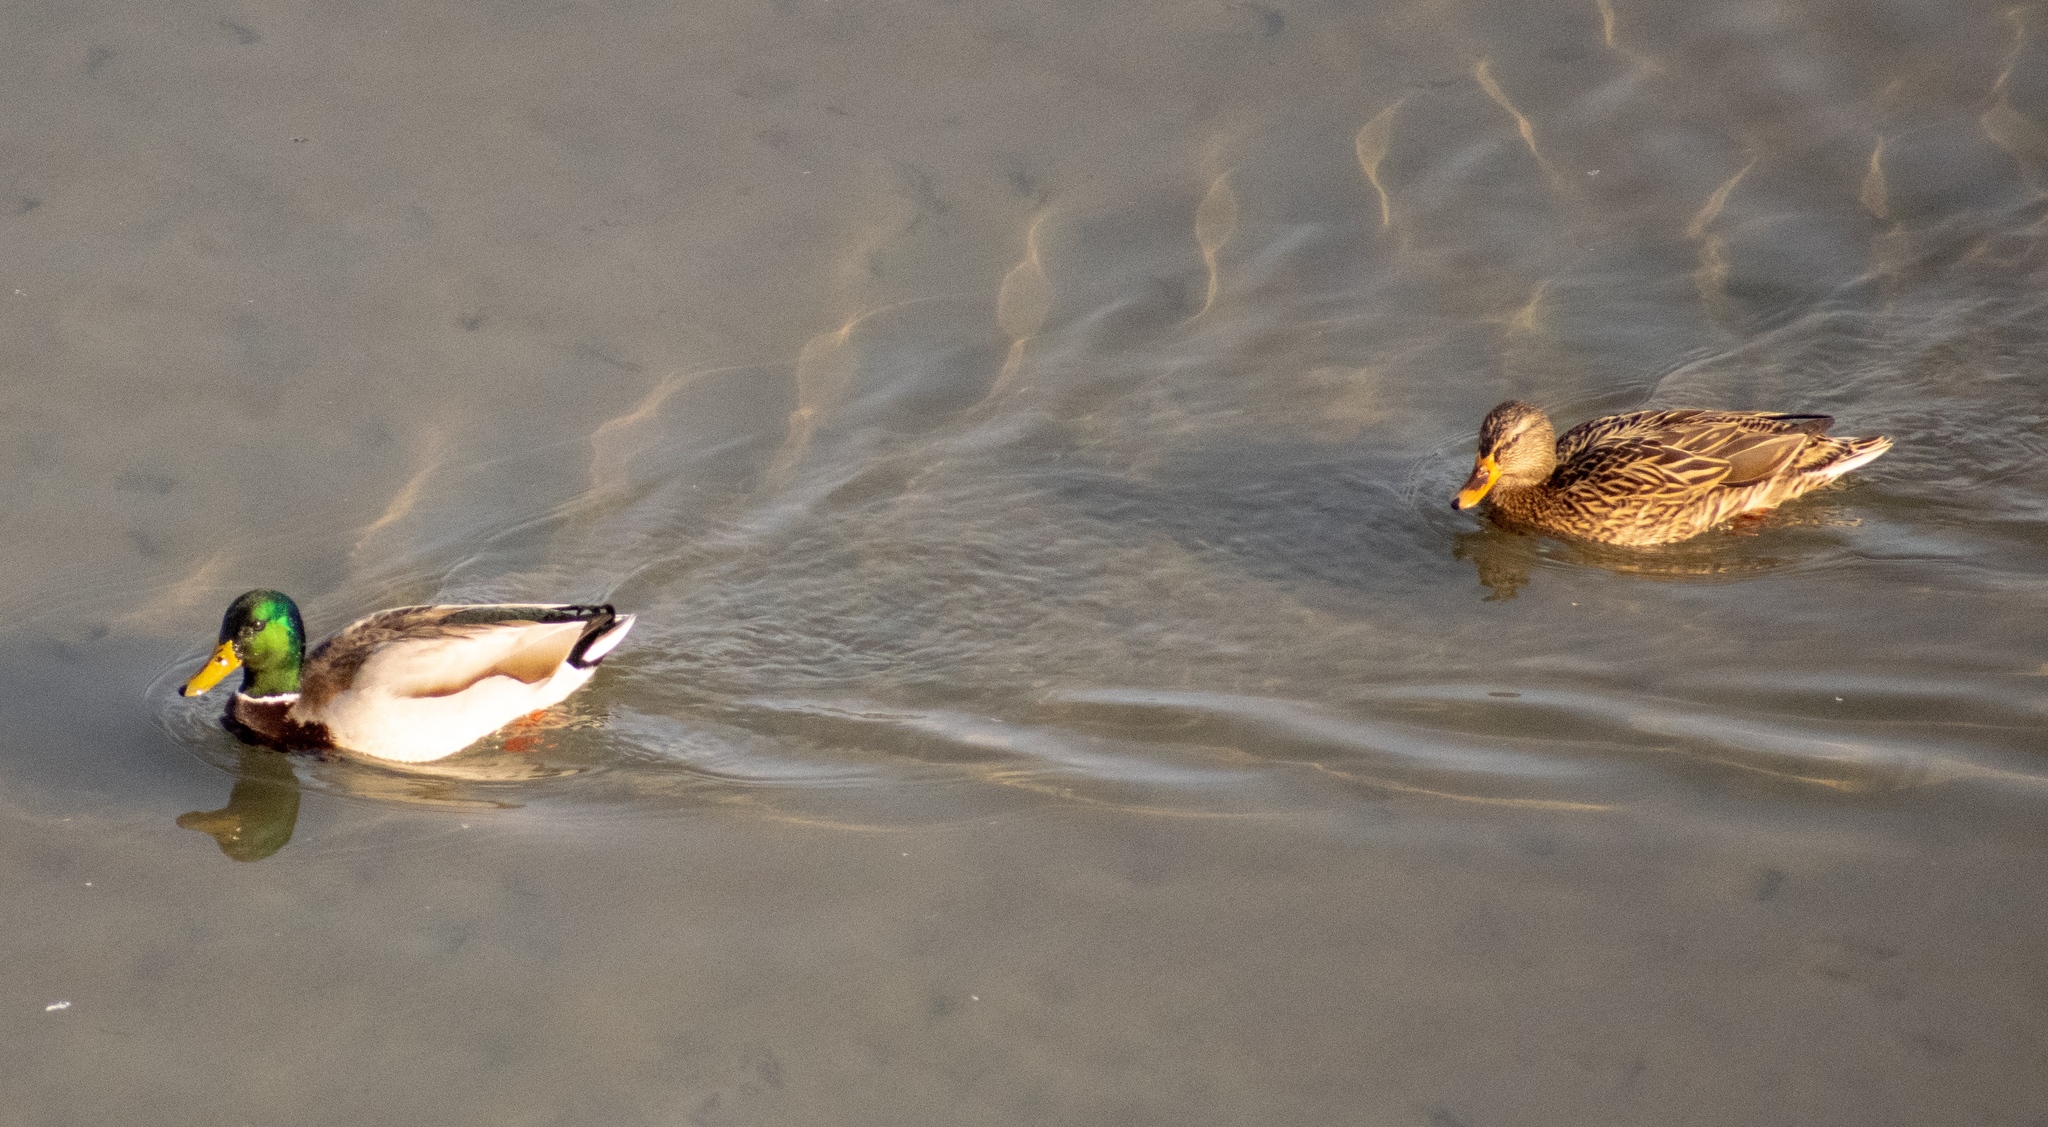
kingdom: Animalia
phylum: Chordata
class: Aves
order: Anseriformes
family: Anatidae
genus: Anas
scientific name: Anas platyrhynchos
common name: Mallard
